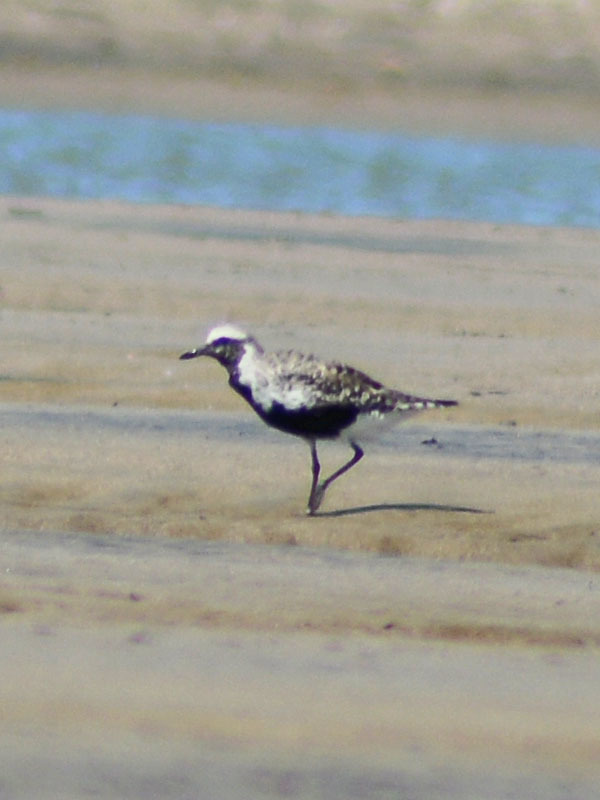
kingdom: Animalia
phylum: Chordata
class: Aves
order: Charadriiformes
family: Charadriidae
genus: Pluvialis
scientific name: Pluvialis squatarola
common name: Grey plover
